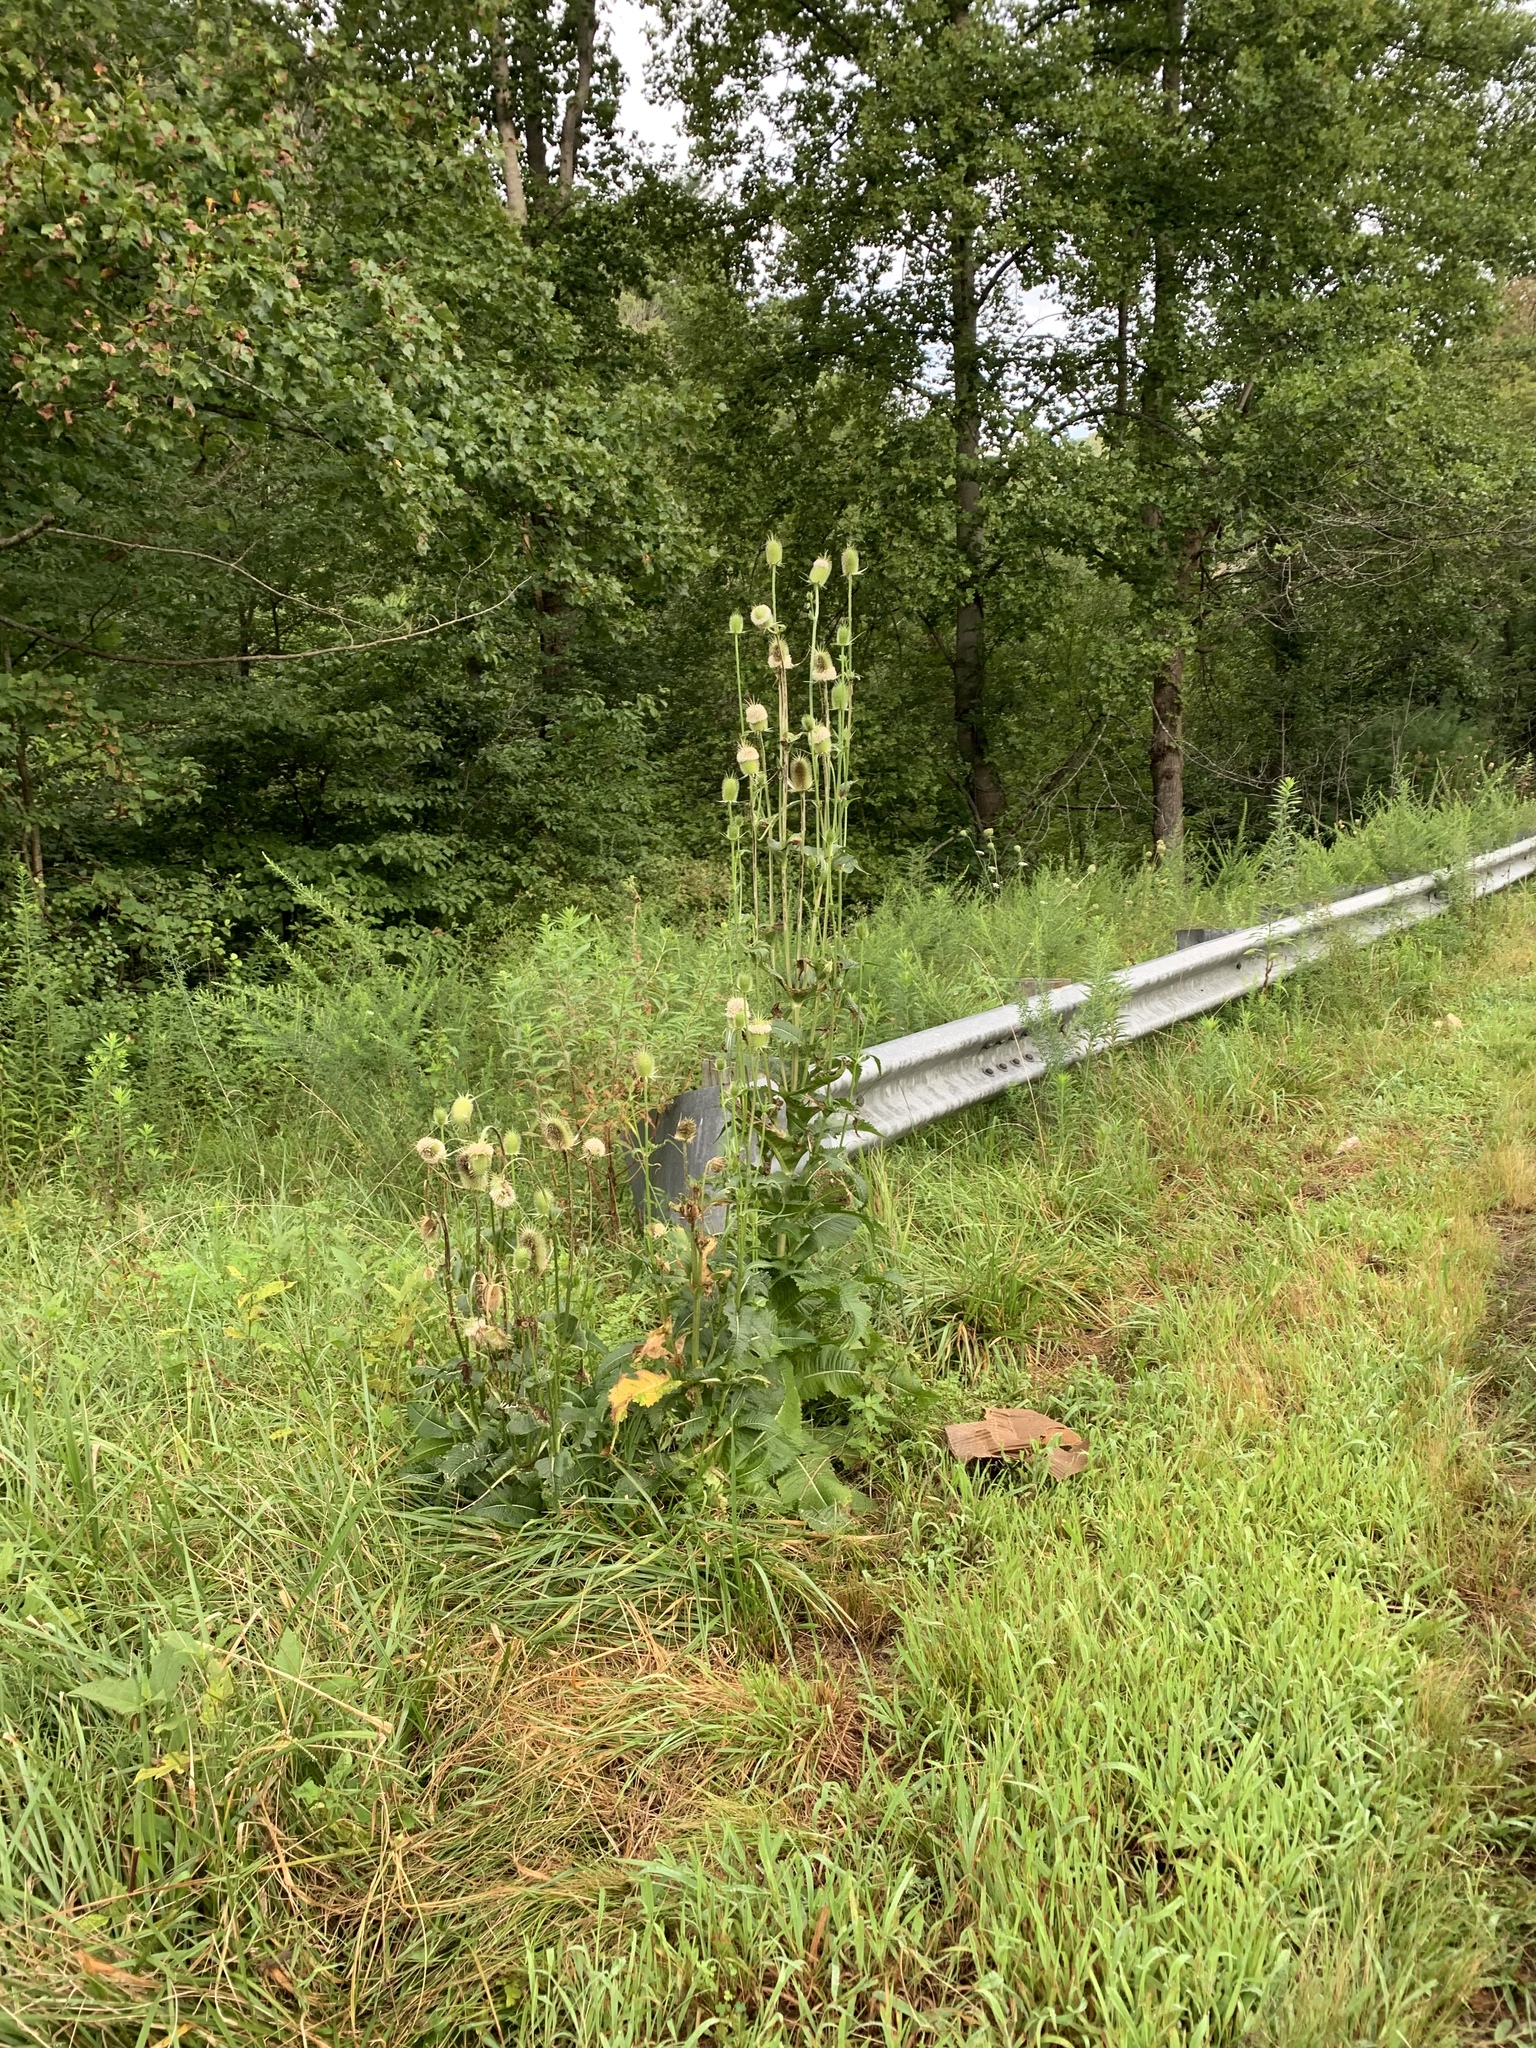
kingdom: Plantae
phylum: Tracheophyta
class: Magnoliopsida
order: Dipsacales
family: Caprifoliaceae
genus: Dipsacus
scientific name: Dipsacus laciniatus
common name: Cut-leaved teasel
